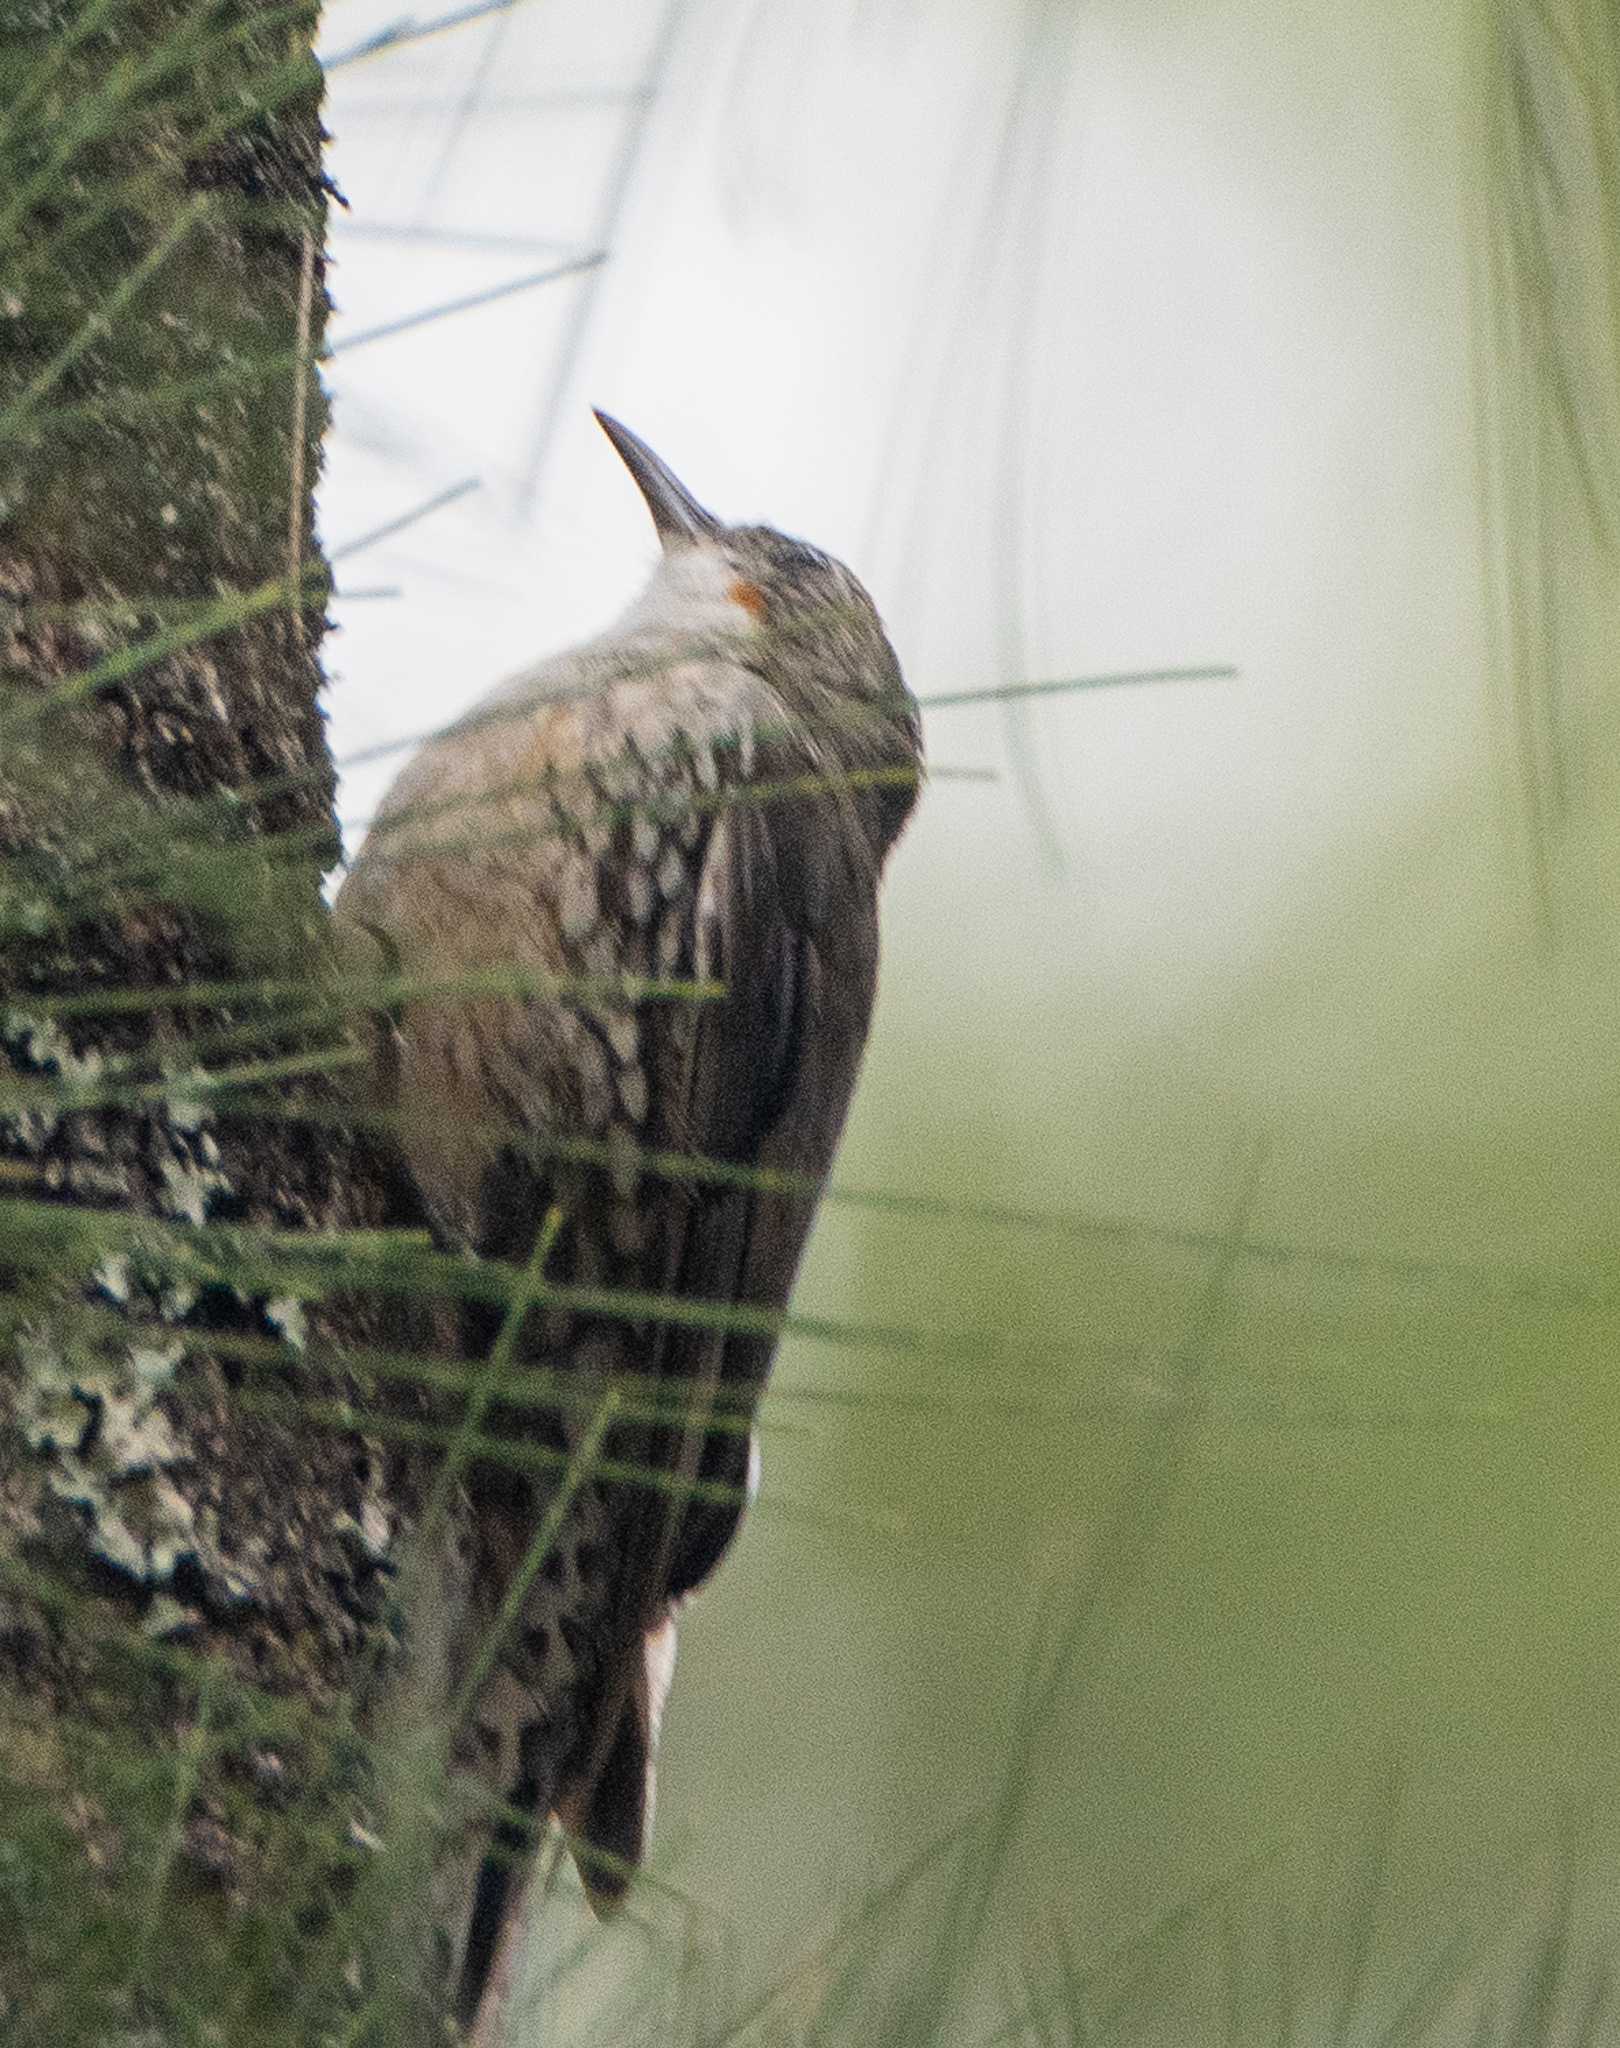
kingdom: Animalia
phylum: Chordata
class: Aves
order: Passeriformes
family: Climacteridae
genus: Cormobates
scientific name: Cormobates leucophaea
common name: White-throated treecreeper
